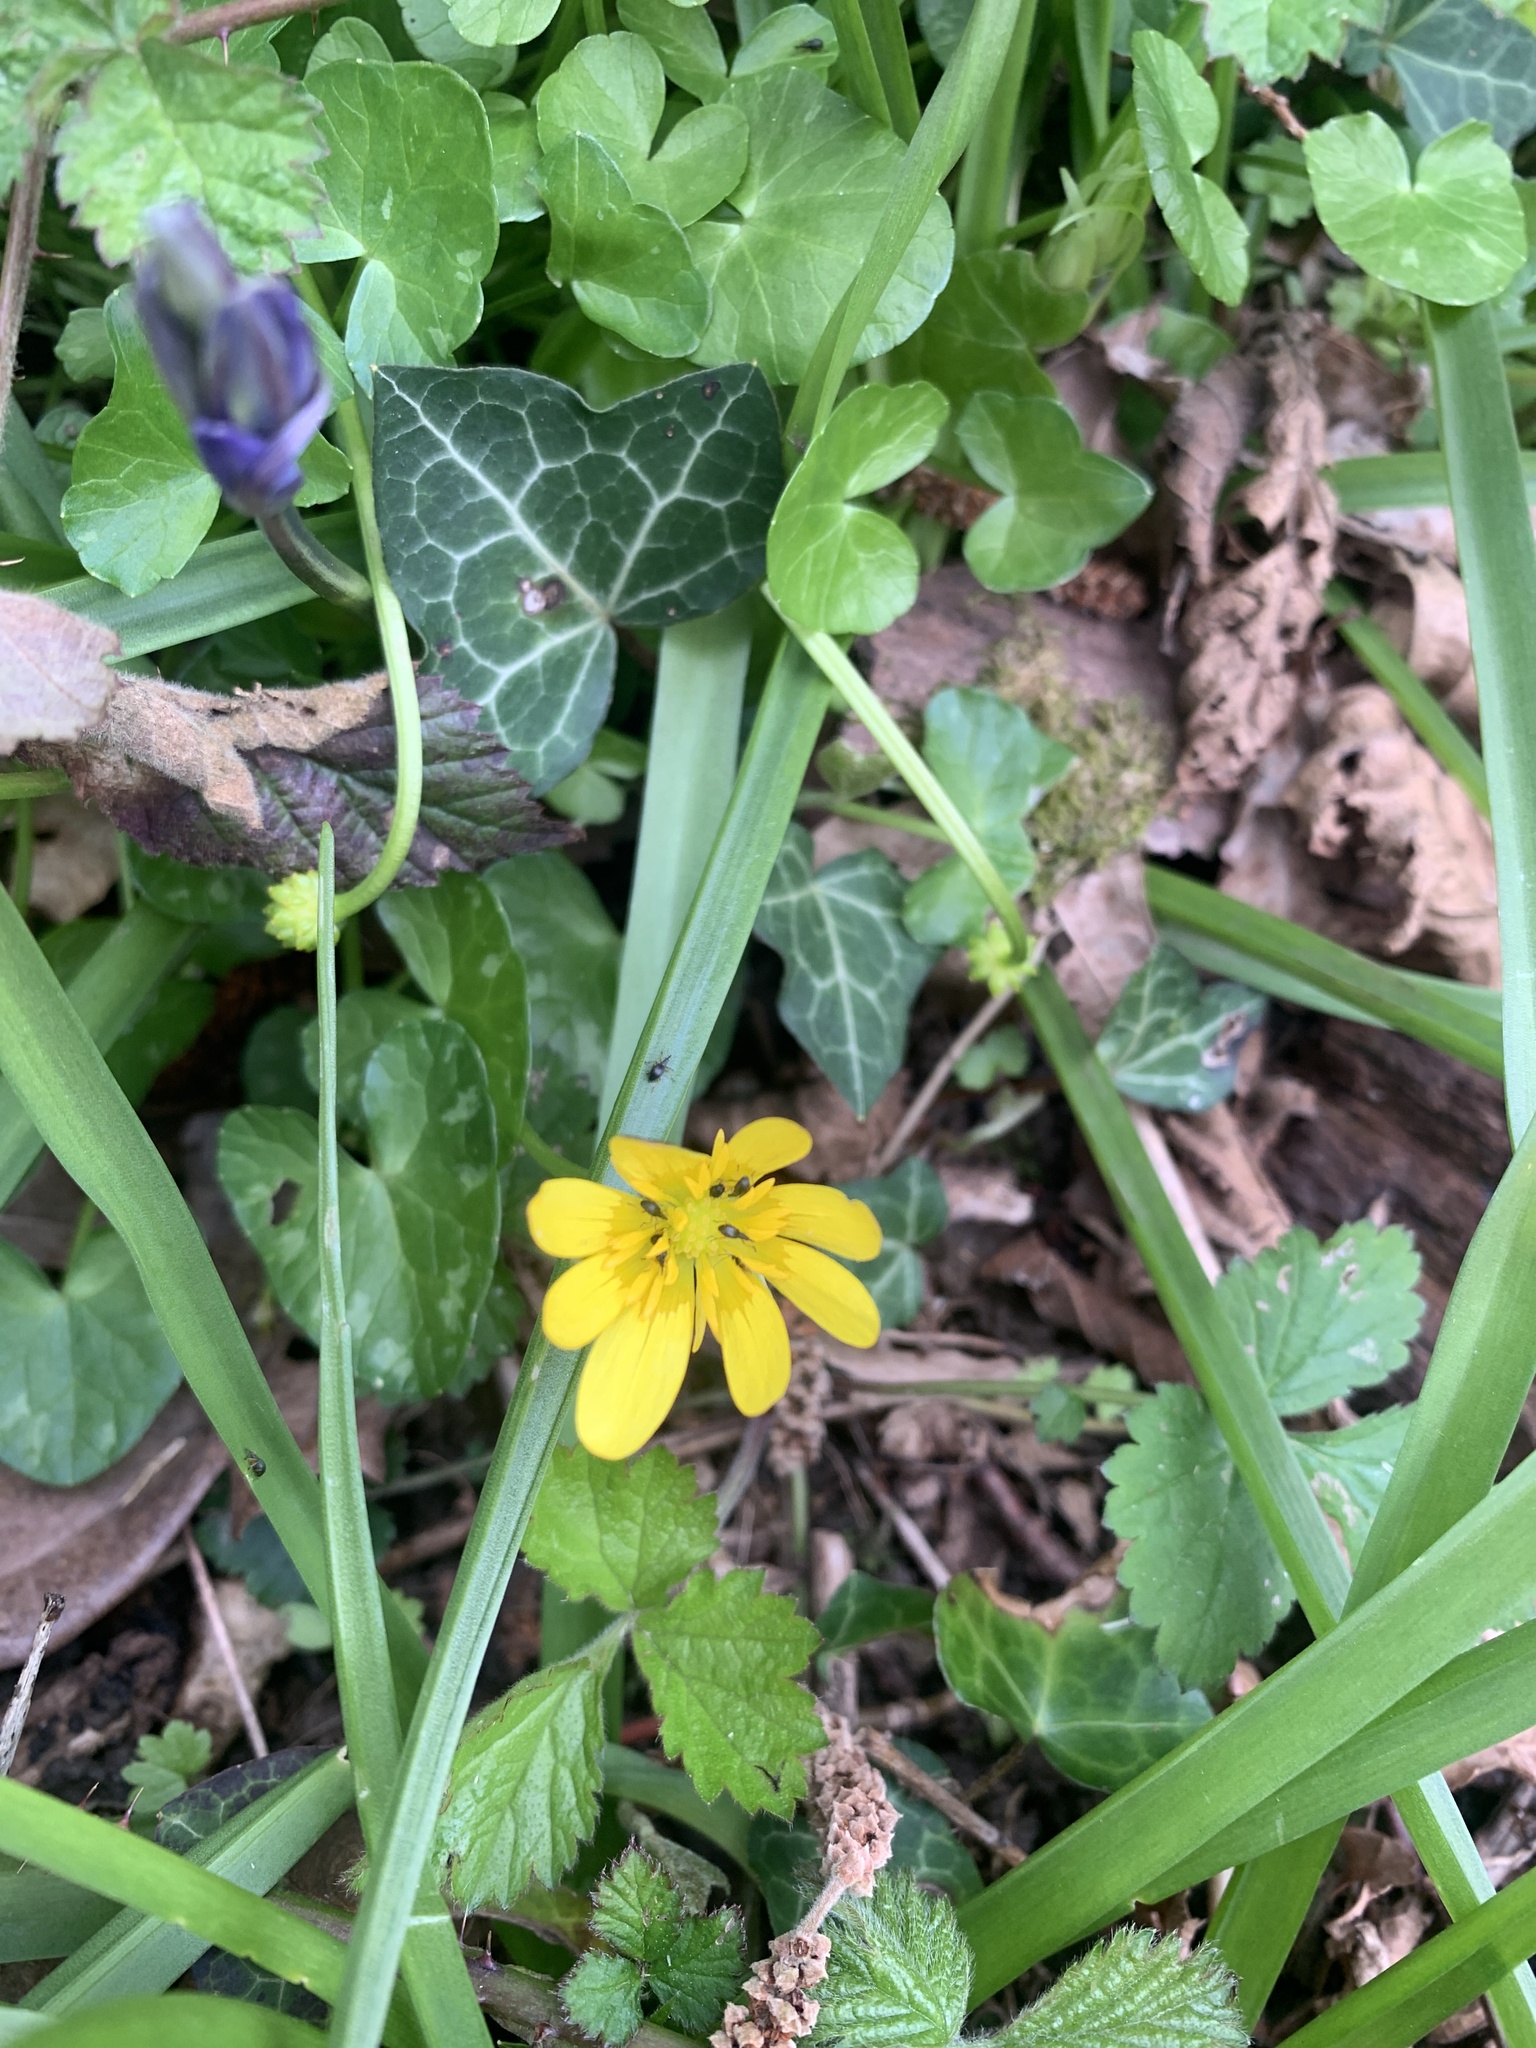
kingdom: Plantae
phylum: Tracheophyta
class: Magnoliopsida
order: Ranunculales
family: Ranunculaceae
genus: Ficaria
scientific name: Ficaria verna
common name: Lesser celandine
